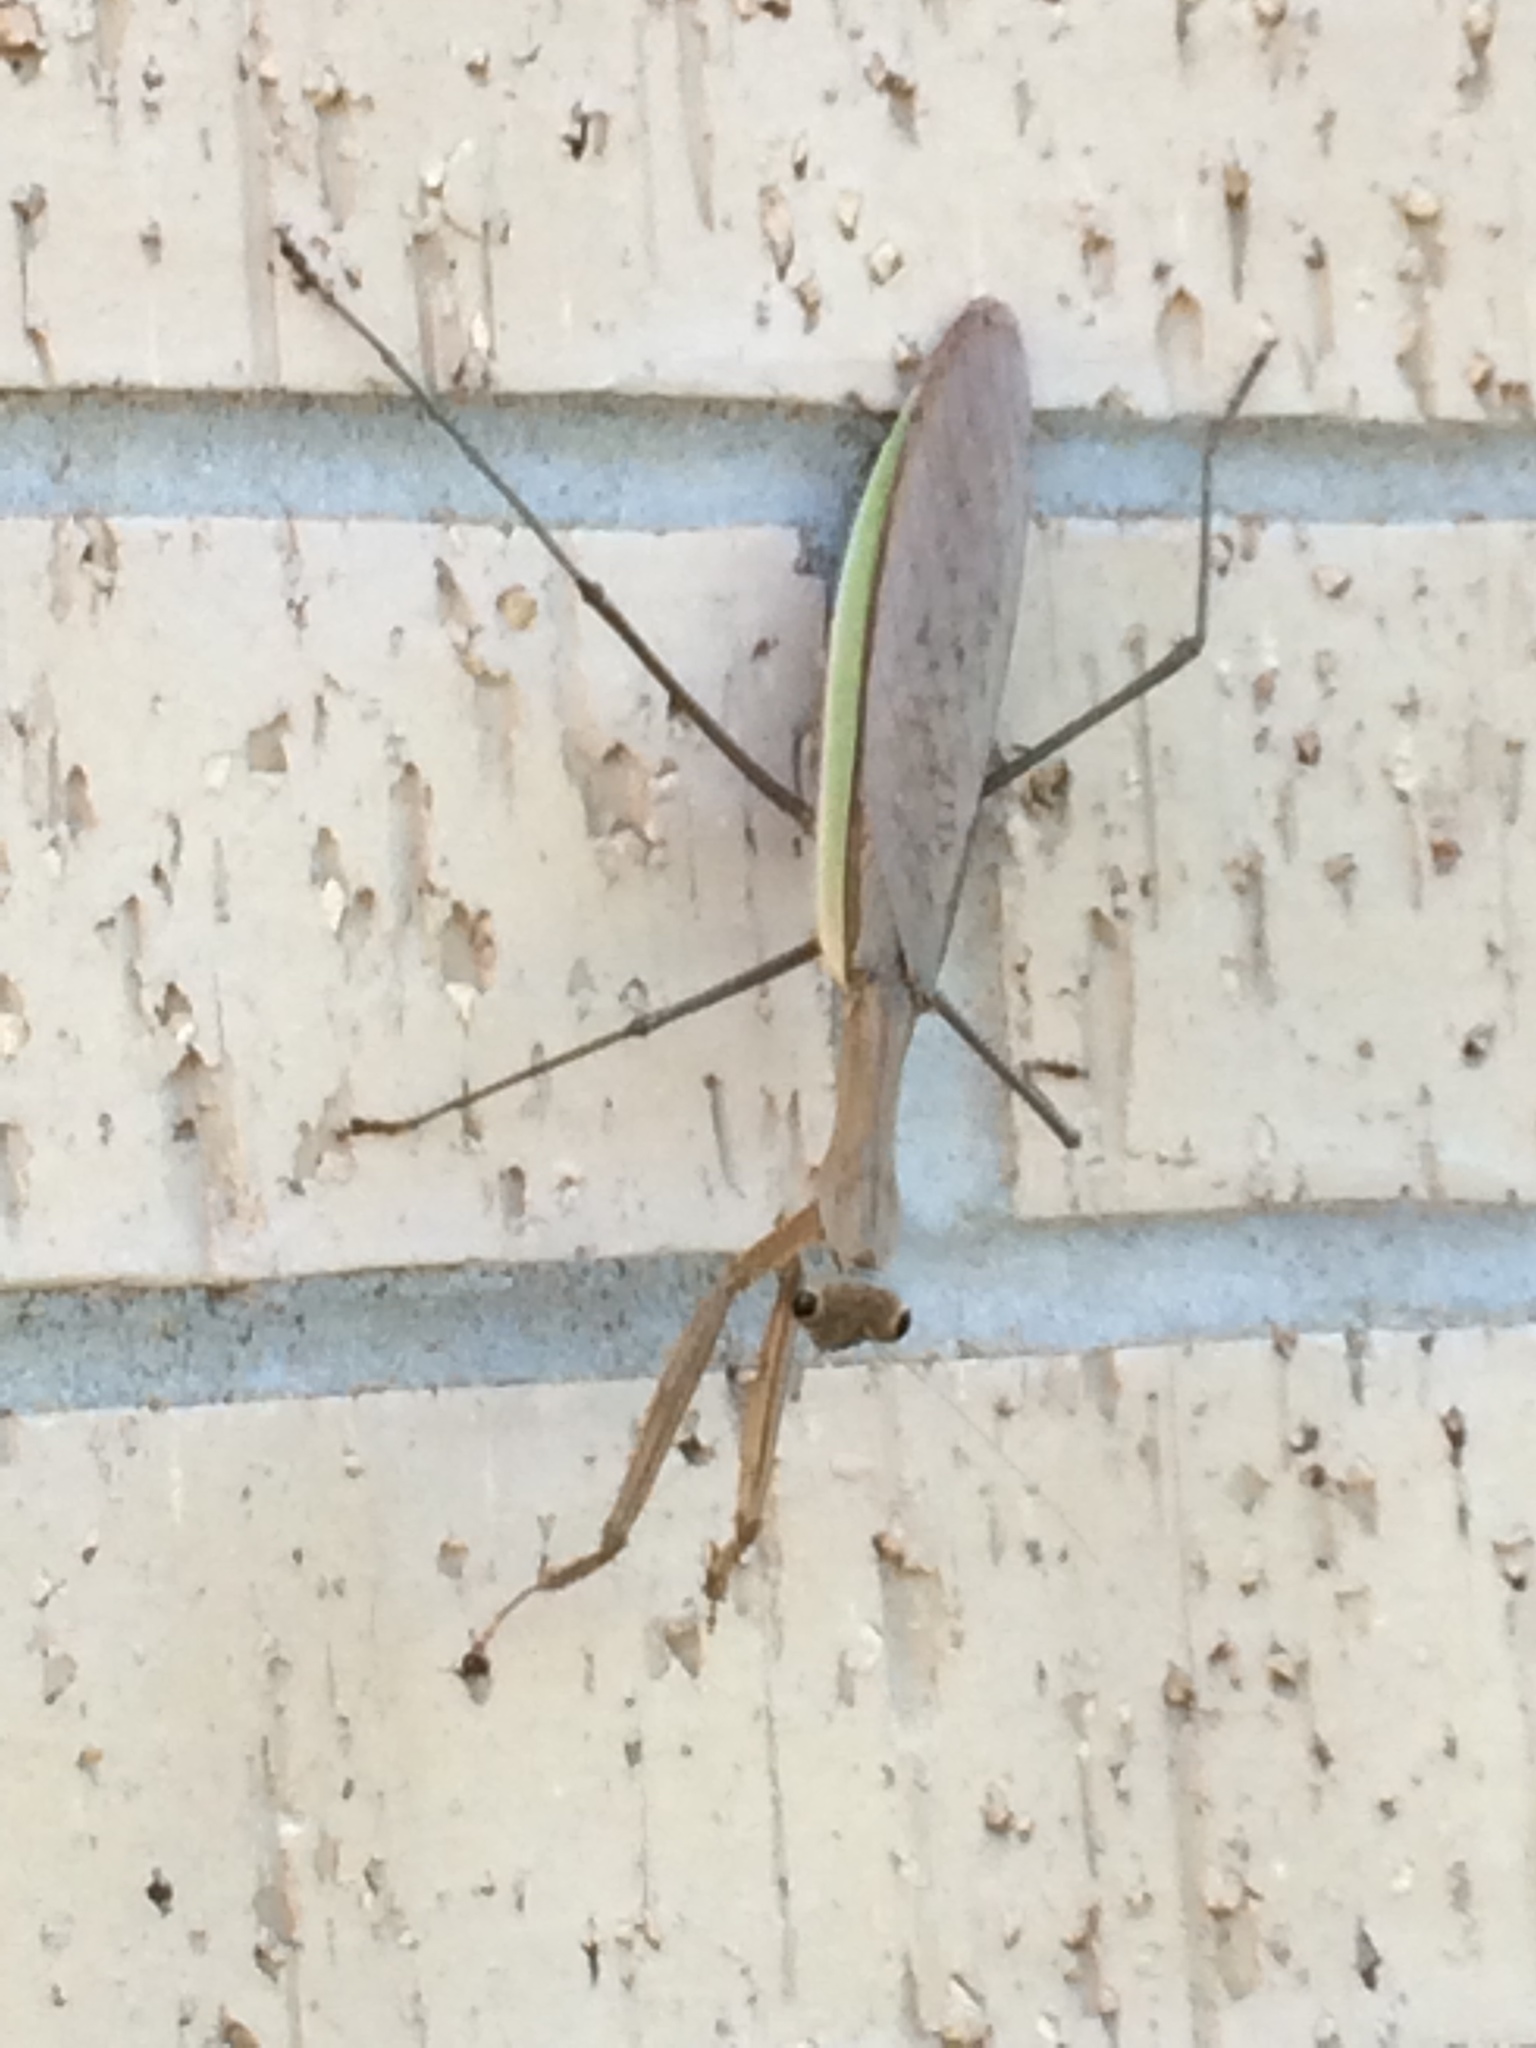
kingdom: Animalia
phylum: Arthropoda
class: Insecta
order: Mantodea
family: Mantidae
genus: Tenodera
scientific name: Tenodera sinensis
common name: Chinese mantis
